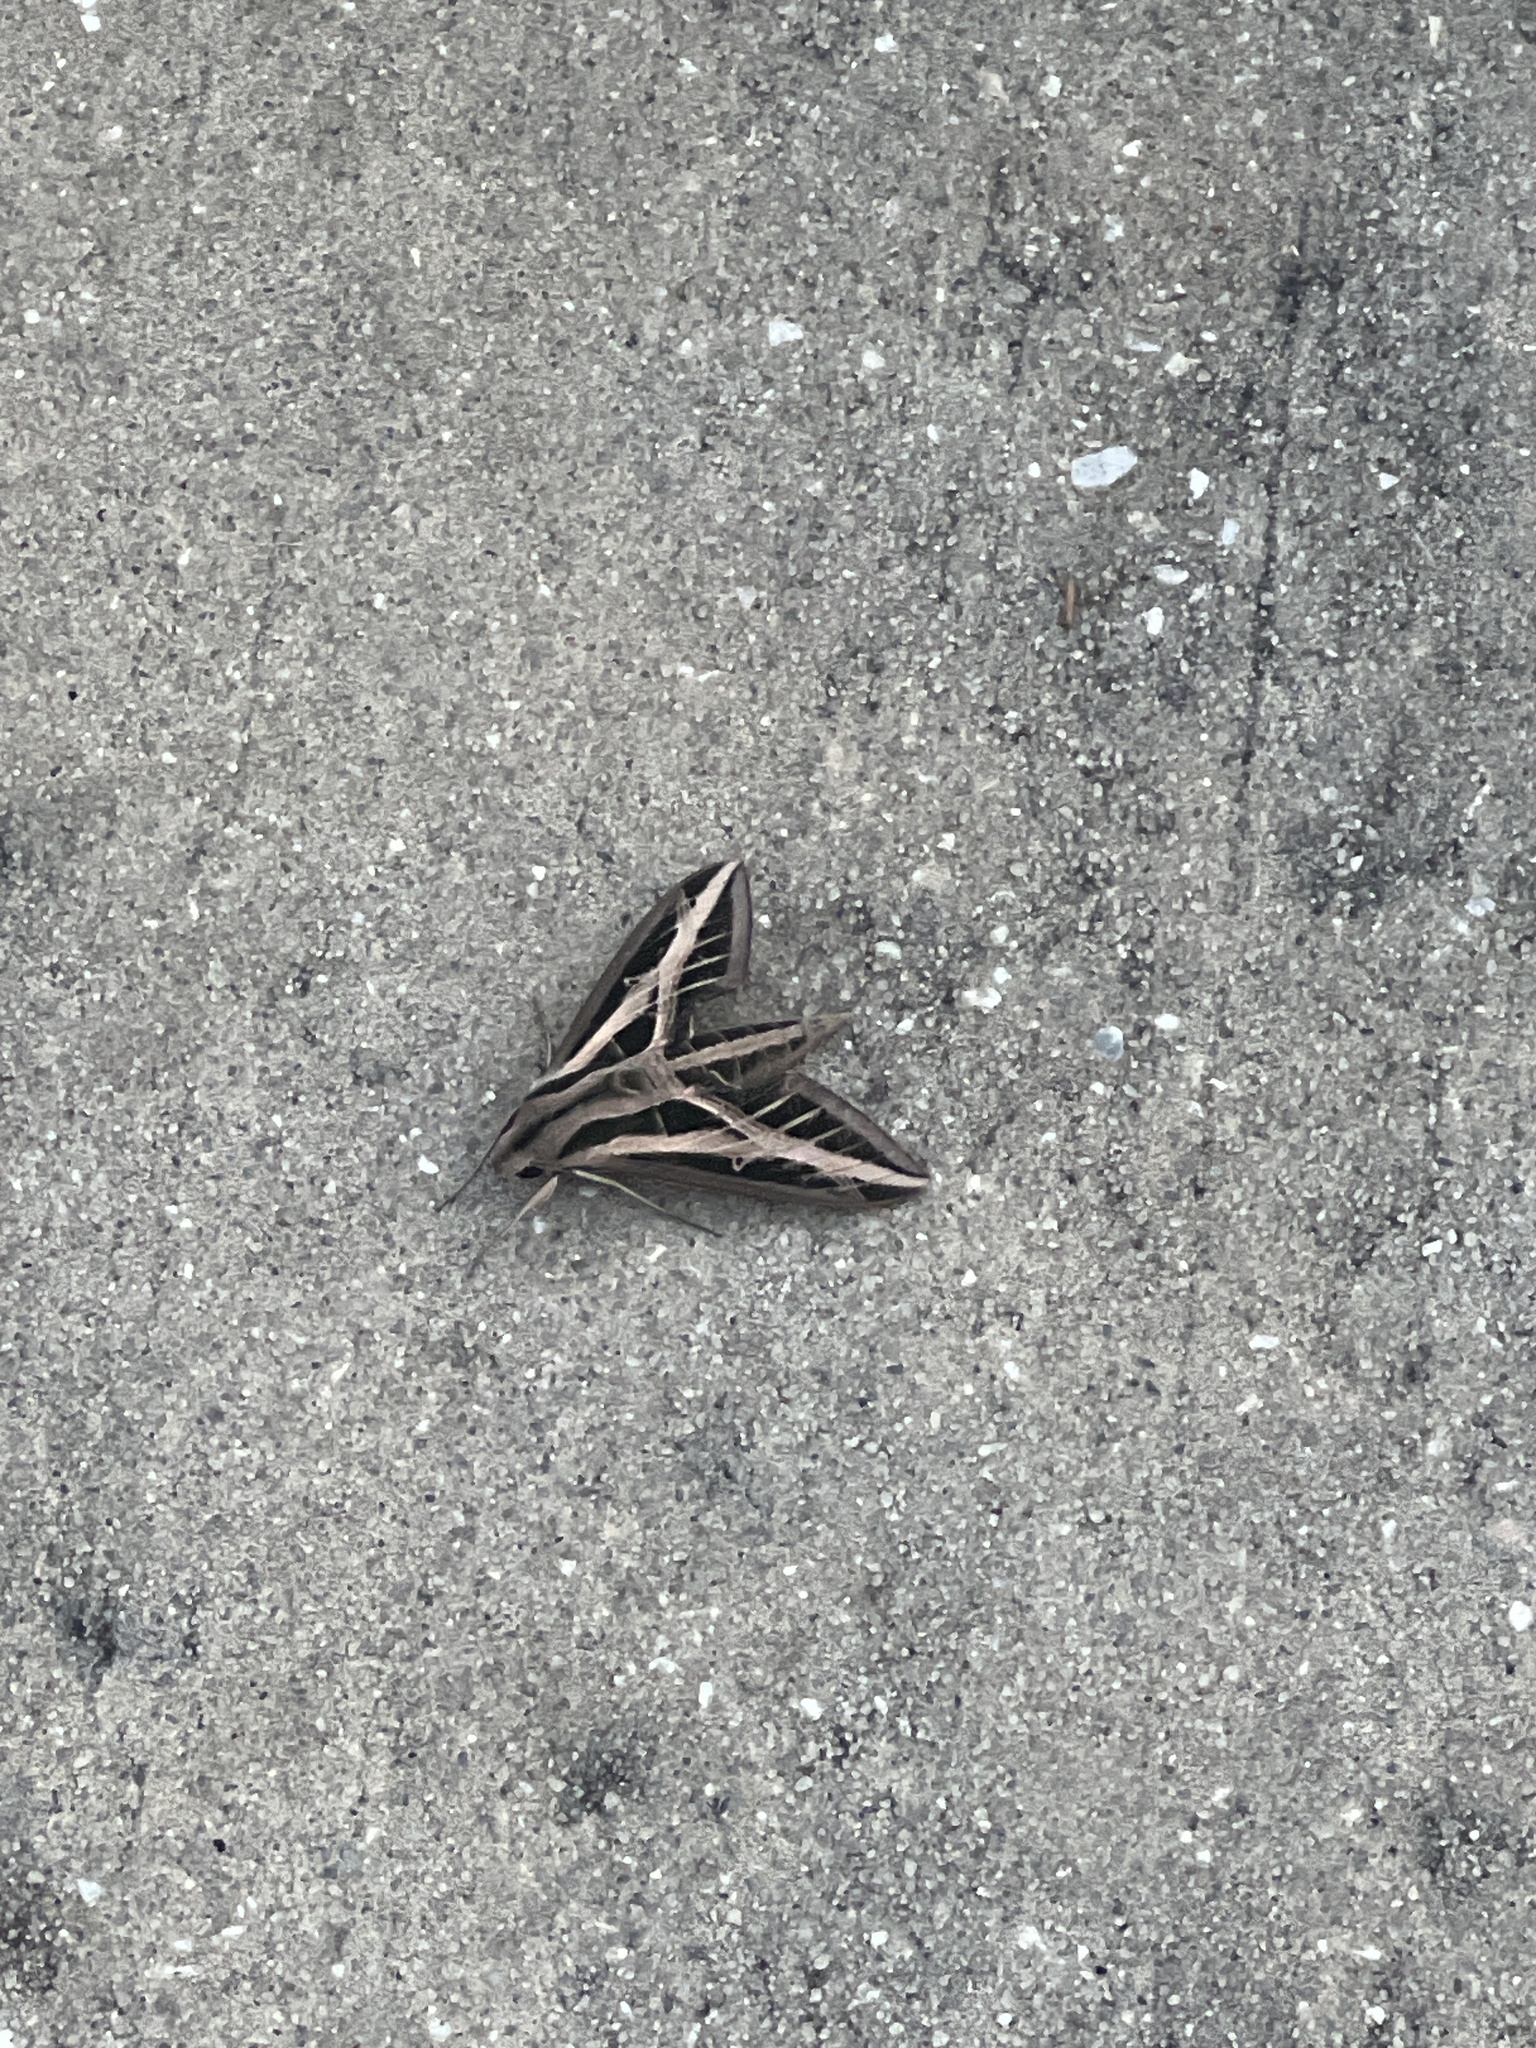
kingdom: Animalia
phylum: Arthropoda
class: Insecta
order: Lepidoptera
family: Sphingidae
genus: Eumorpha
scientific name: Eumorpha fasciatus
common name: Banded sphinx
